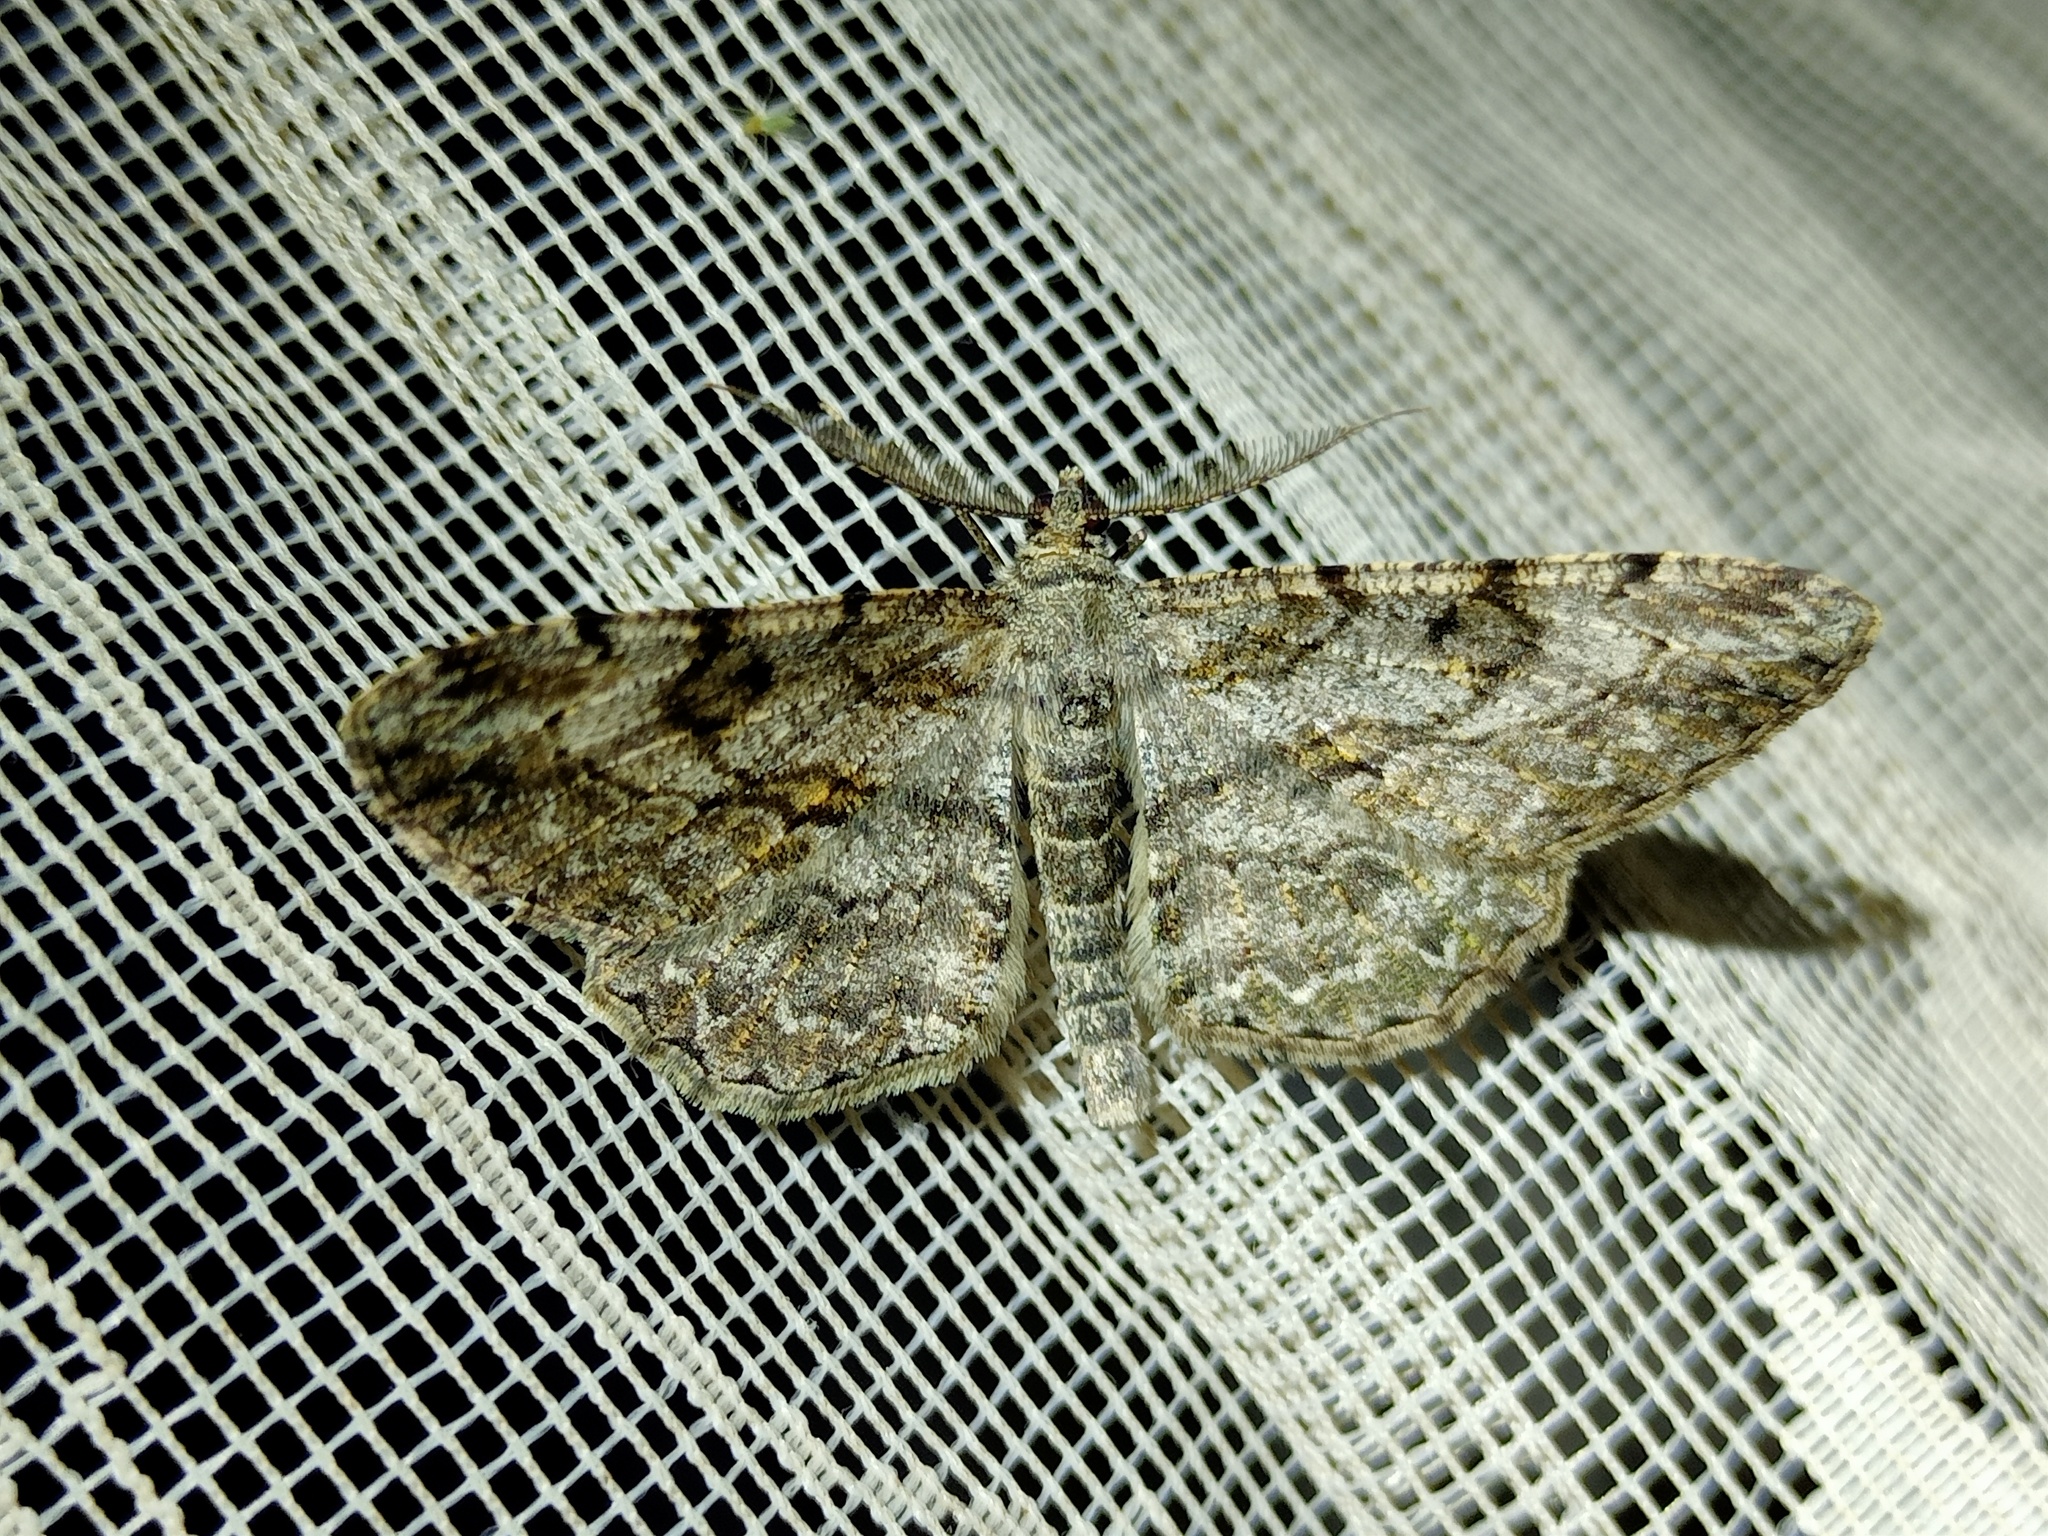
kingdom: Animalia
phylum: Arthropoda
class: Insecta
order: Lepidoptera
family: Geometridae
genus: Peribatodes
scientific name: Peribatodes rhomboidaria
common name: Willow beauty
